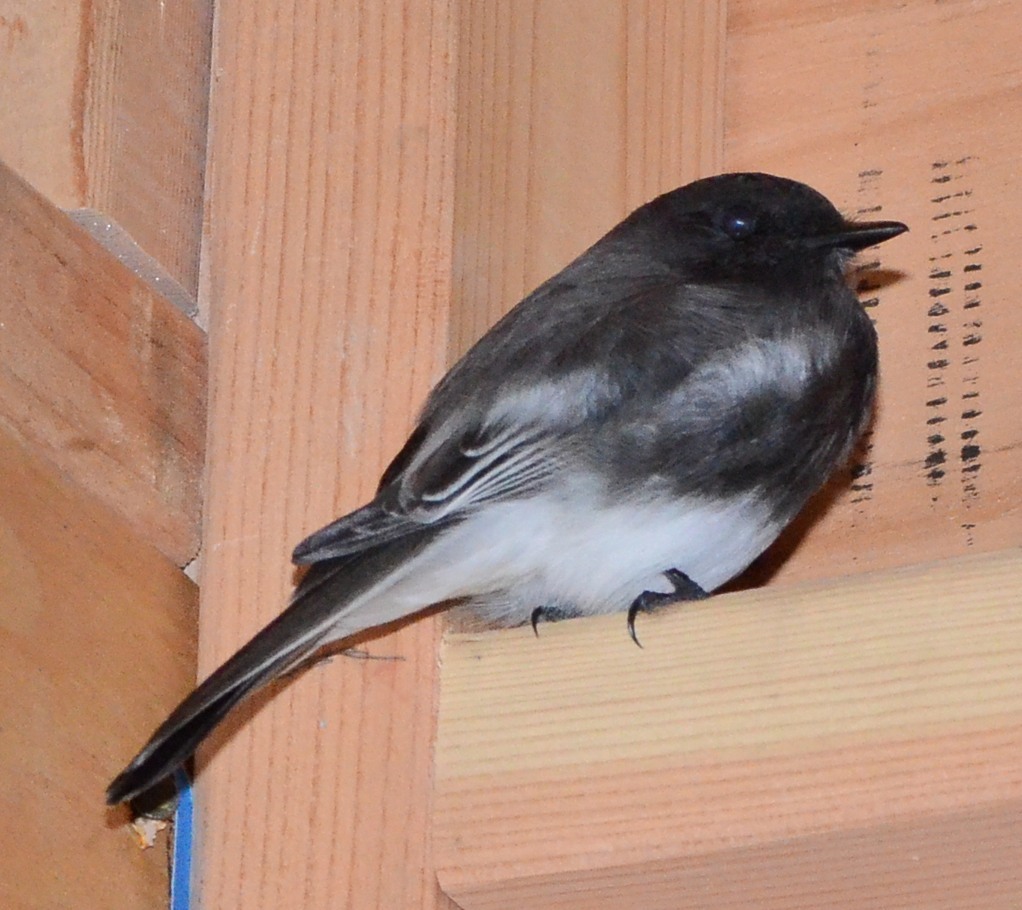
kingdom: Animalia
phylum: Chordata
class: Aves
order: Passeriformes
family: Tyrannidae
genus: Sayornis
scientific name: Sayornis nigricans
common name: Black phoebe
